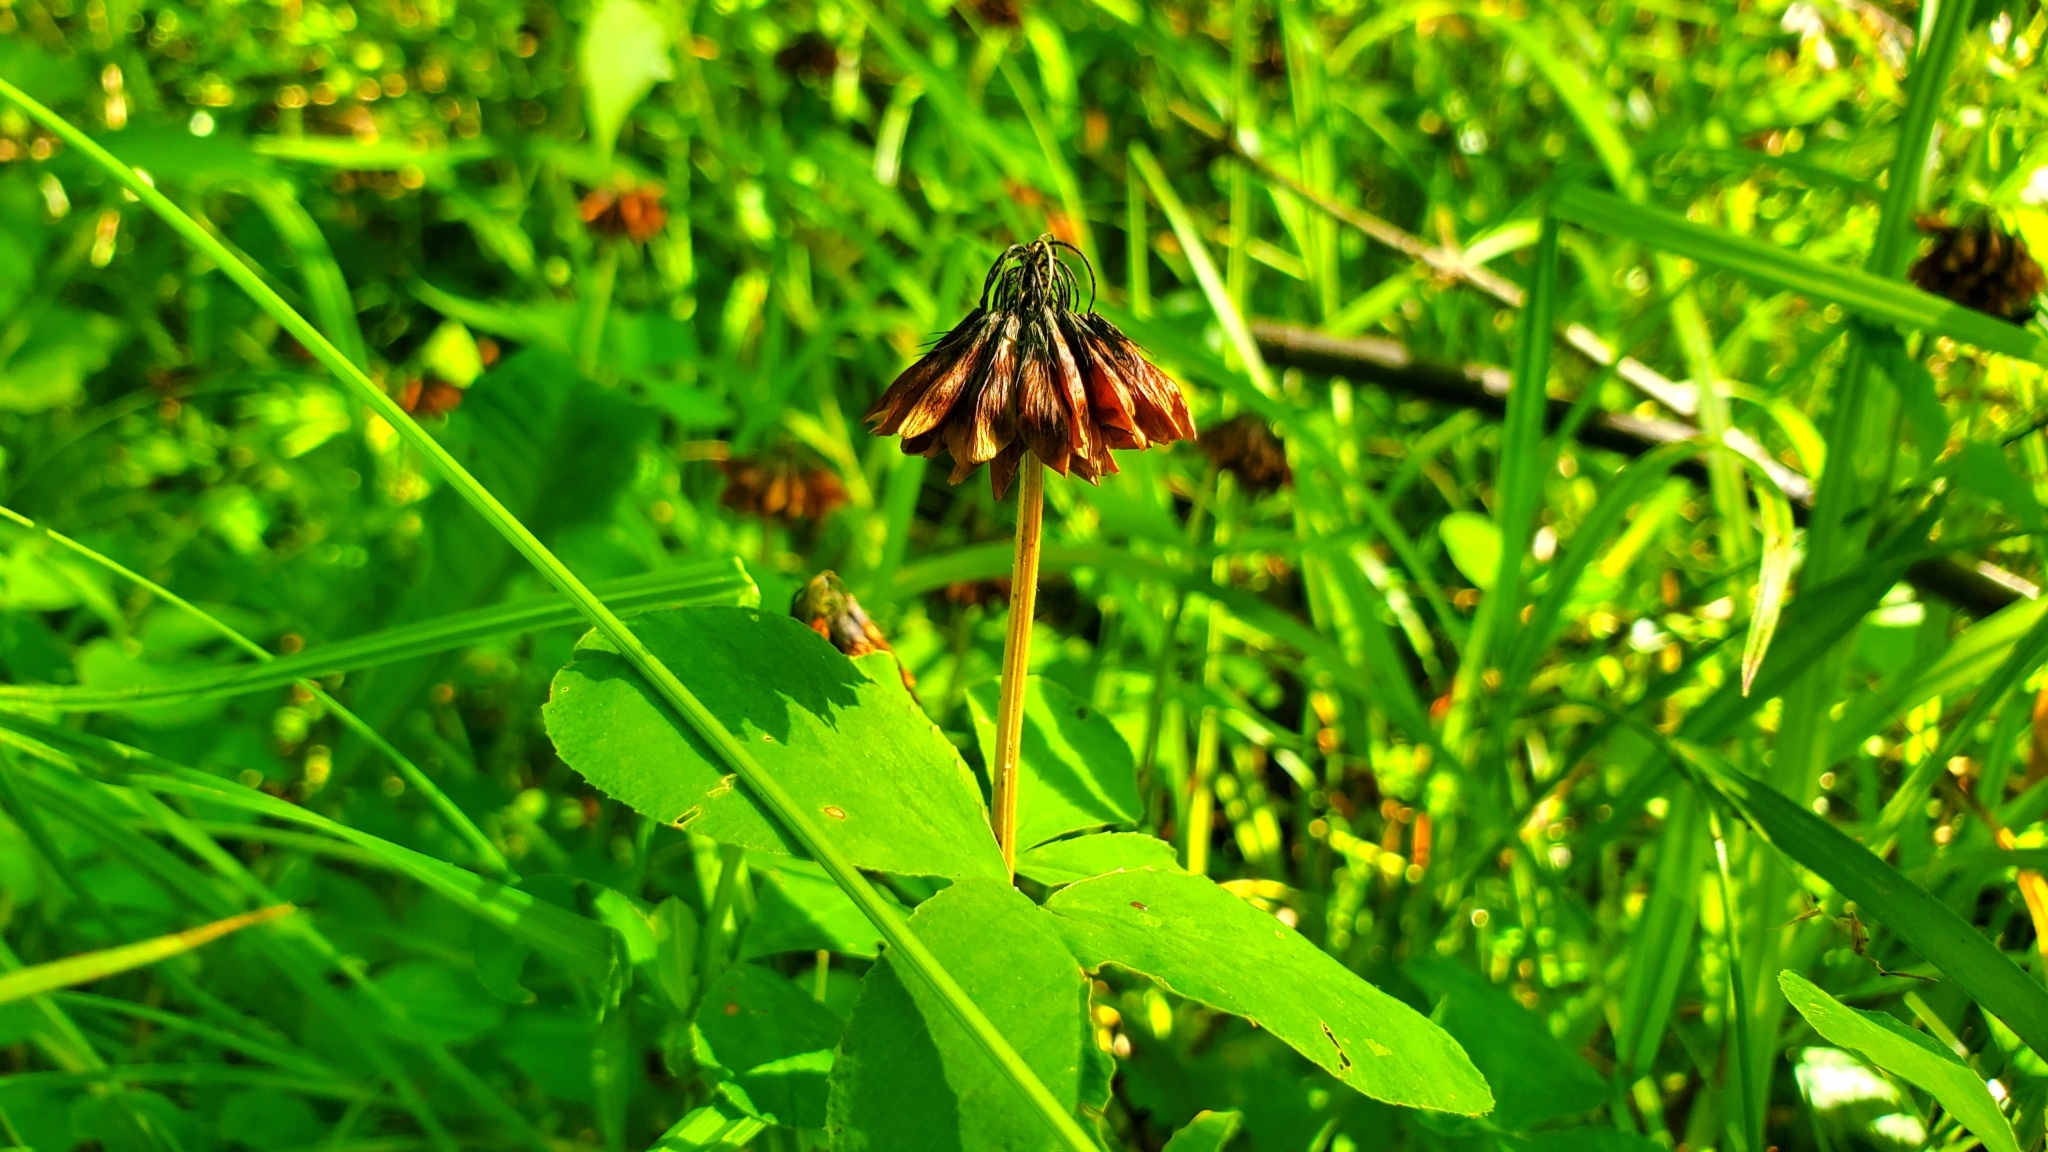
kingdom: Plantae
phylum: Tracheophyta
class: Magnoliopsida
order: Fabales
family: Fabaceae
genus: Trifolium
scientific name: Trifolium stoloniferum
